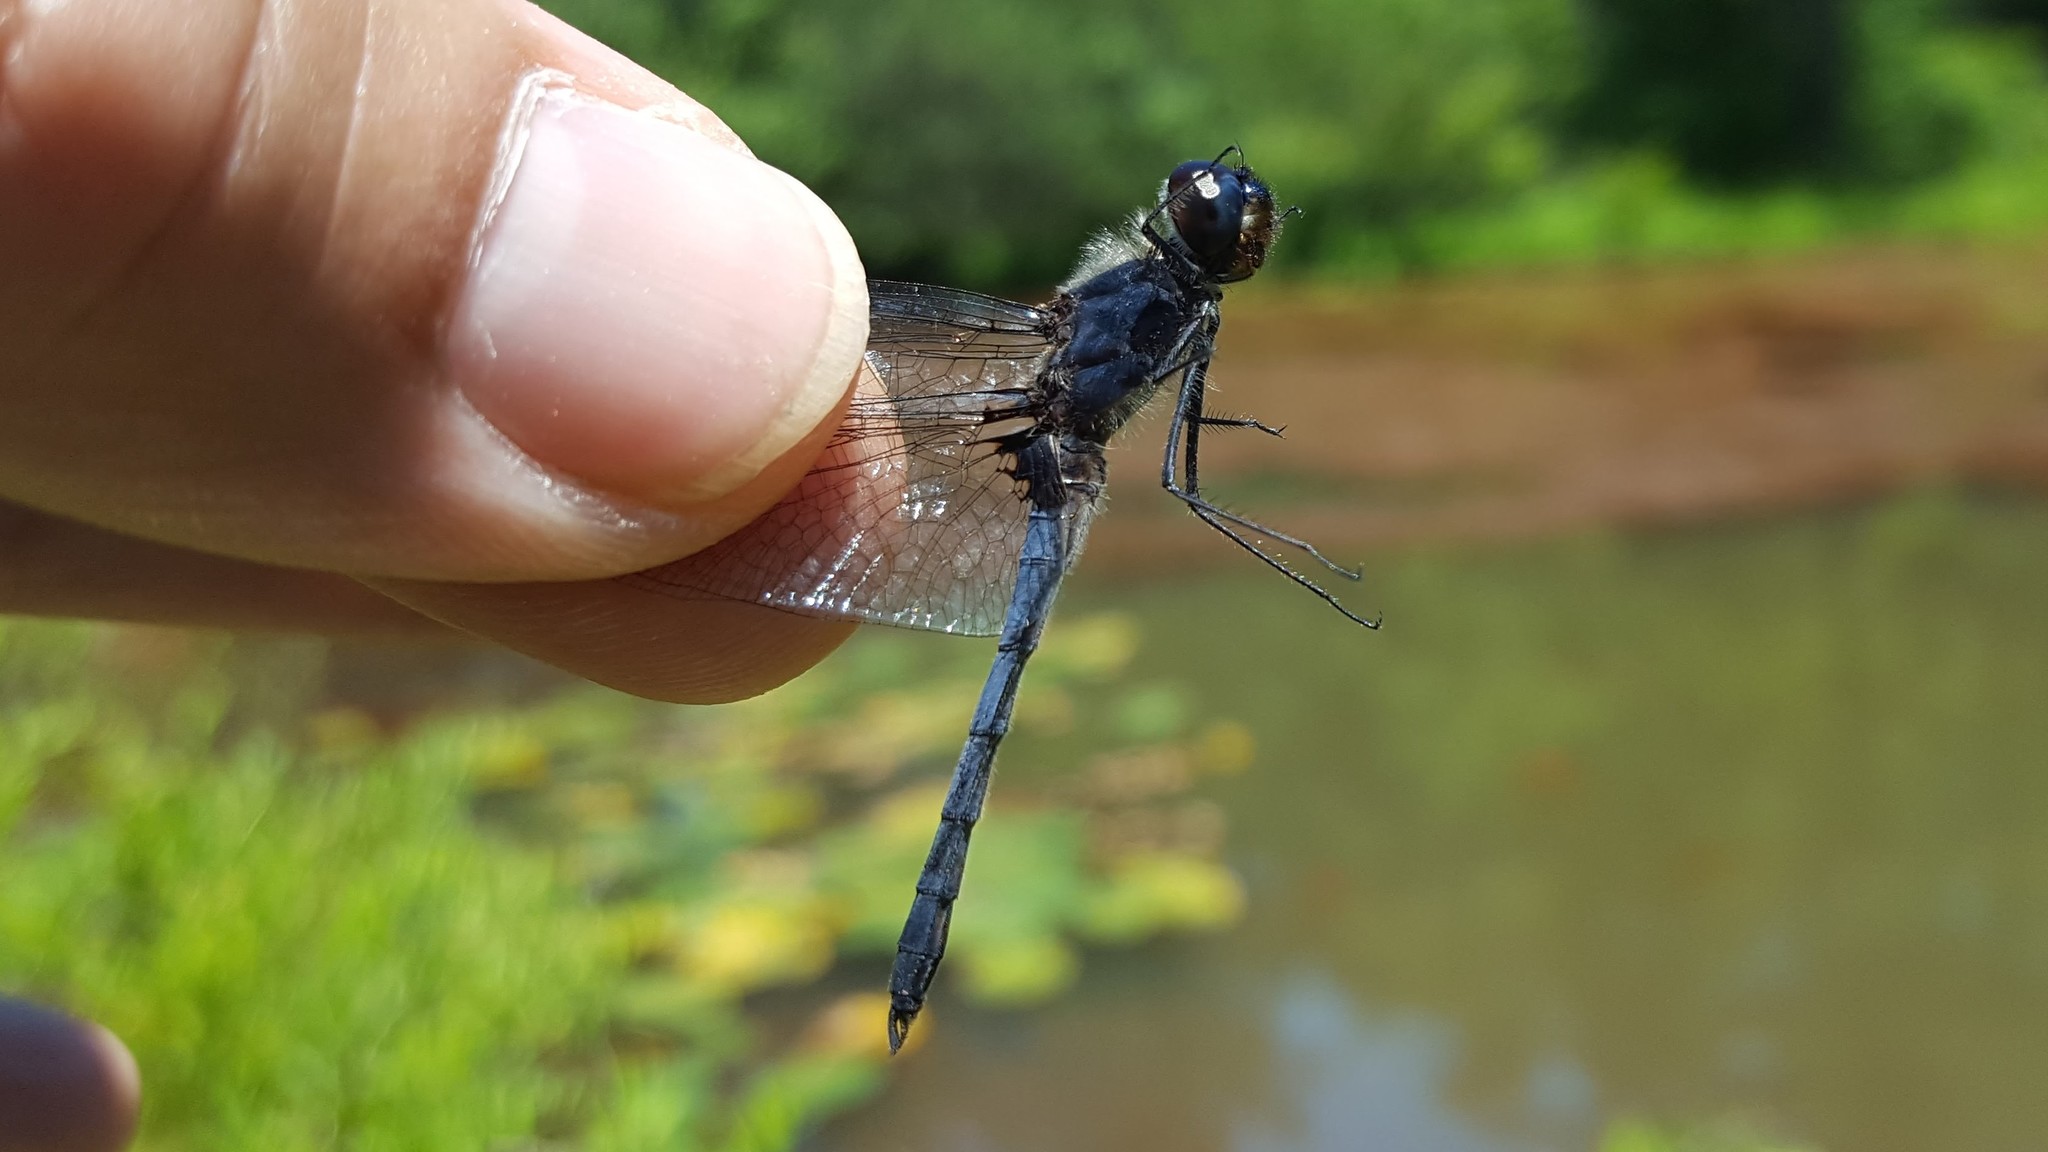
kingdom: Animalia
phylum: Arthropoda
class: Insecta
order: Odonata
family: Libellulidae
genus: Celithemis
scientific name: Celithemis verna
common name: Double-ringed pennant
